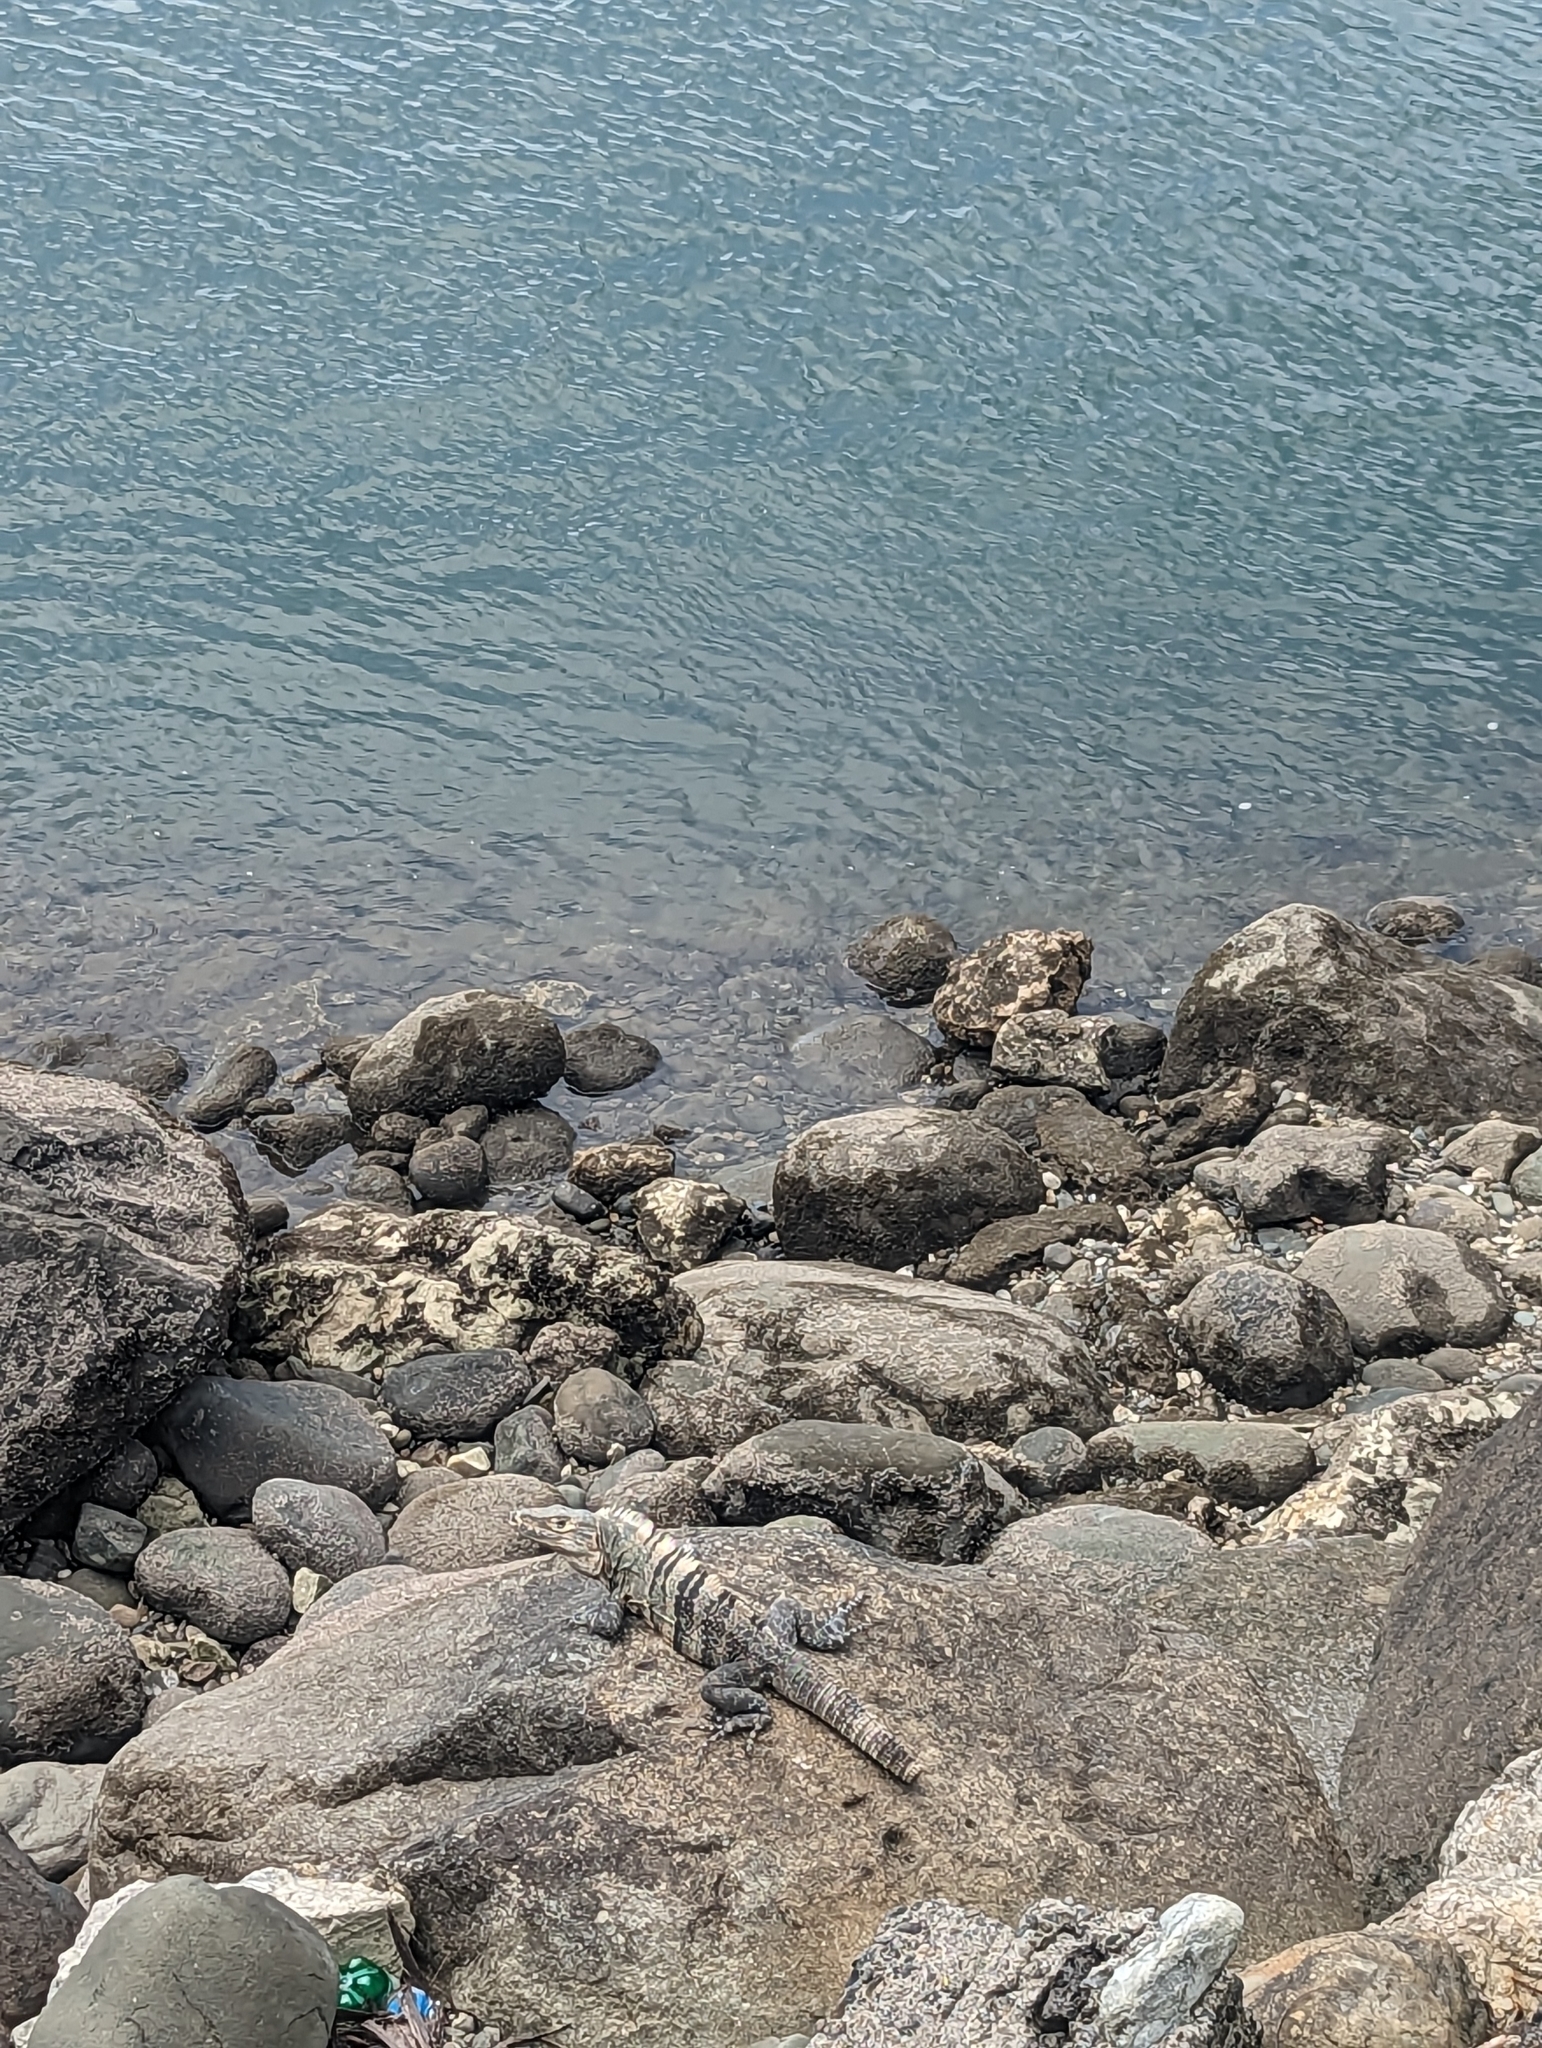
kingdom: Animalia
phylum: Chordata
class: Squamata
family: Iguanidae
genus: Ctenosaura
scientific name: Ctenosaura similis
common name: Black spiny-tailed iguana
